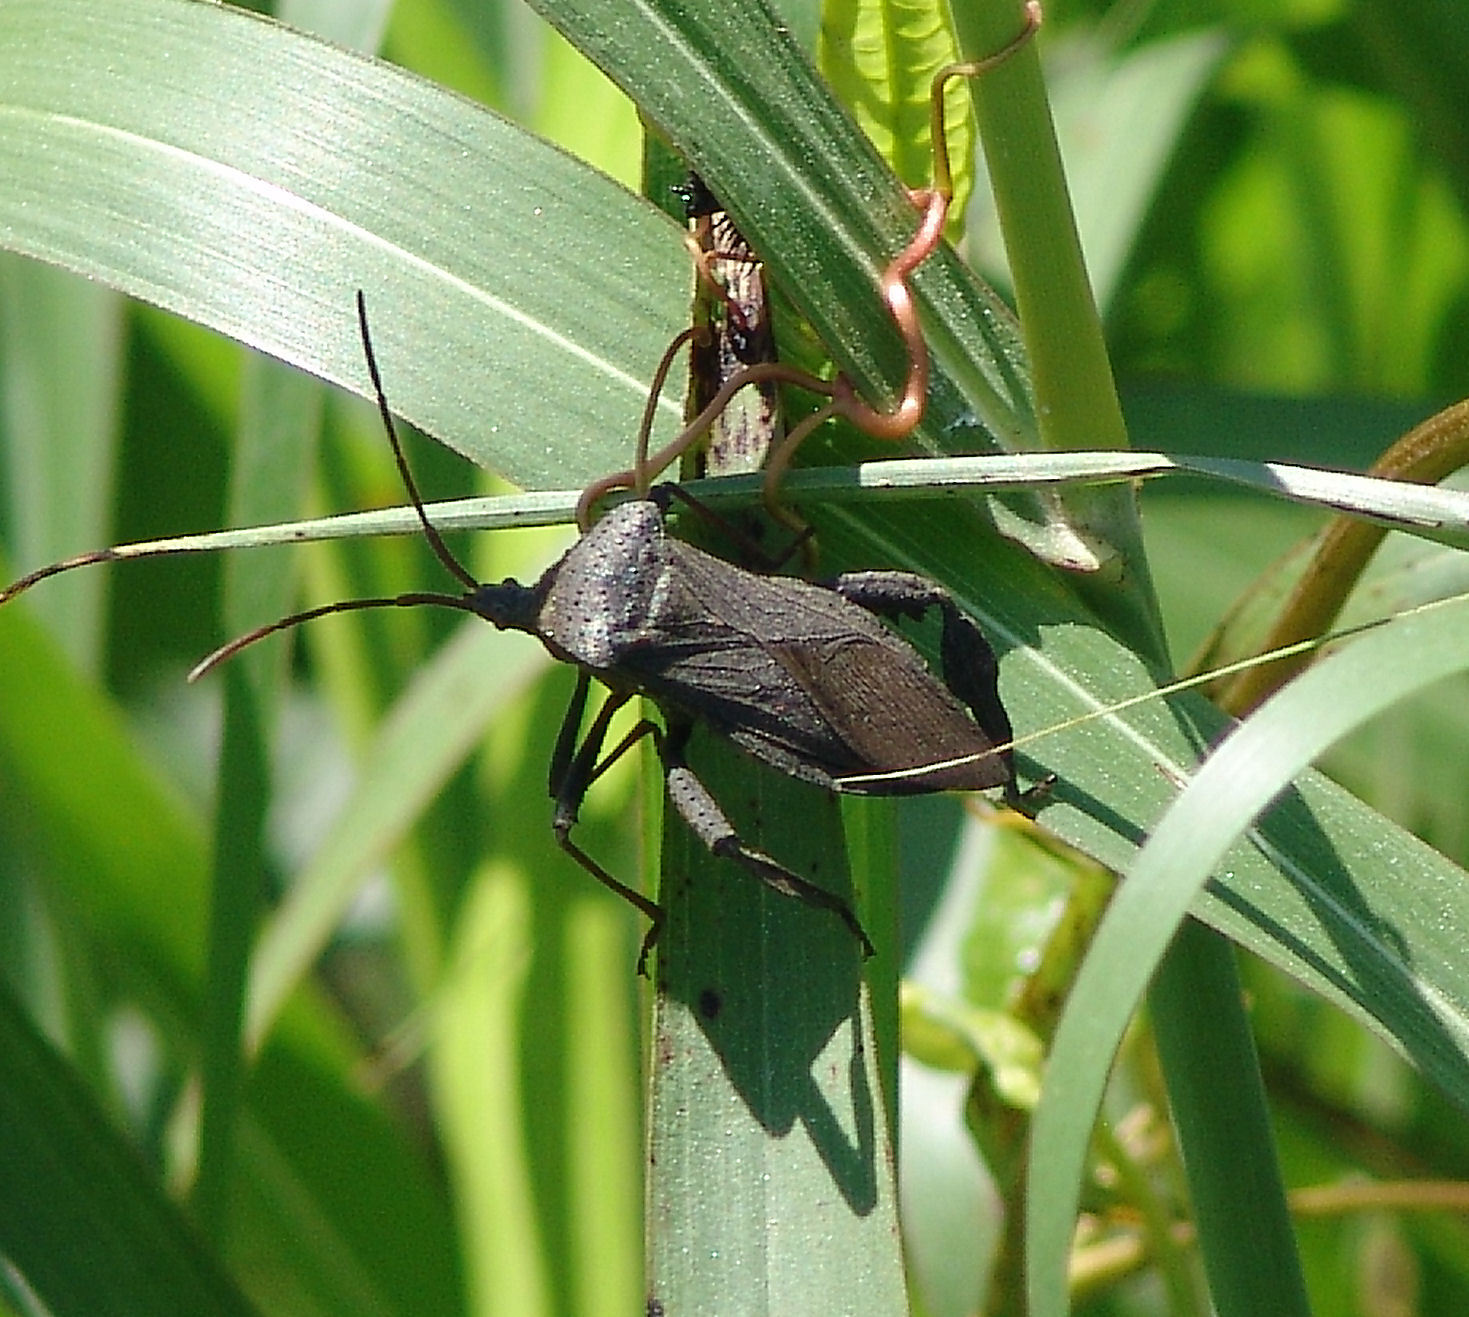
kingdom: Animalia
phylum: Arthropoda
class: Insecta
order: Hemiptera
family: Coreidae
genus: Acanthocephala
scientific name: Acanthocephala femorata
